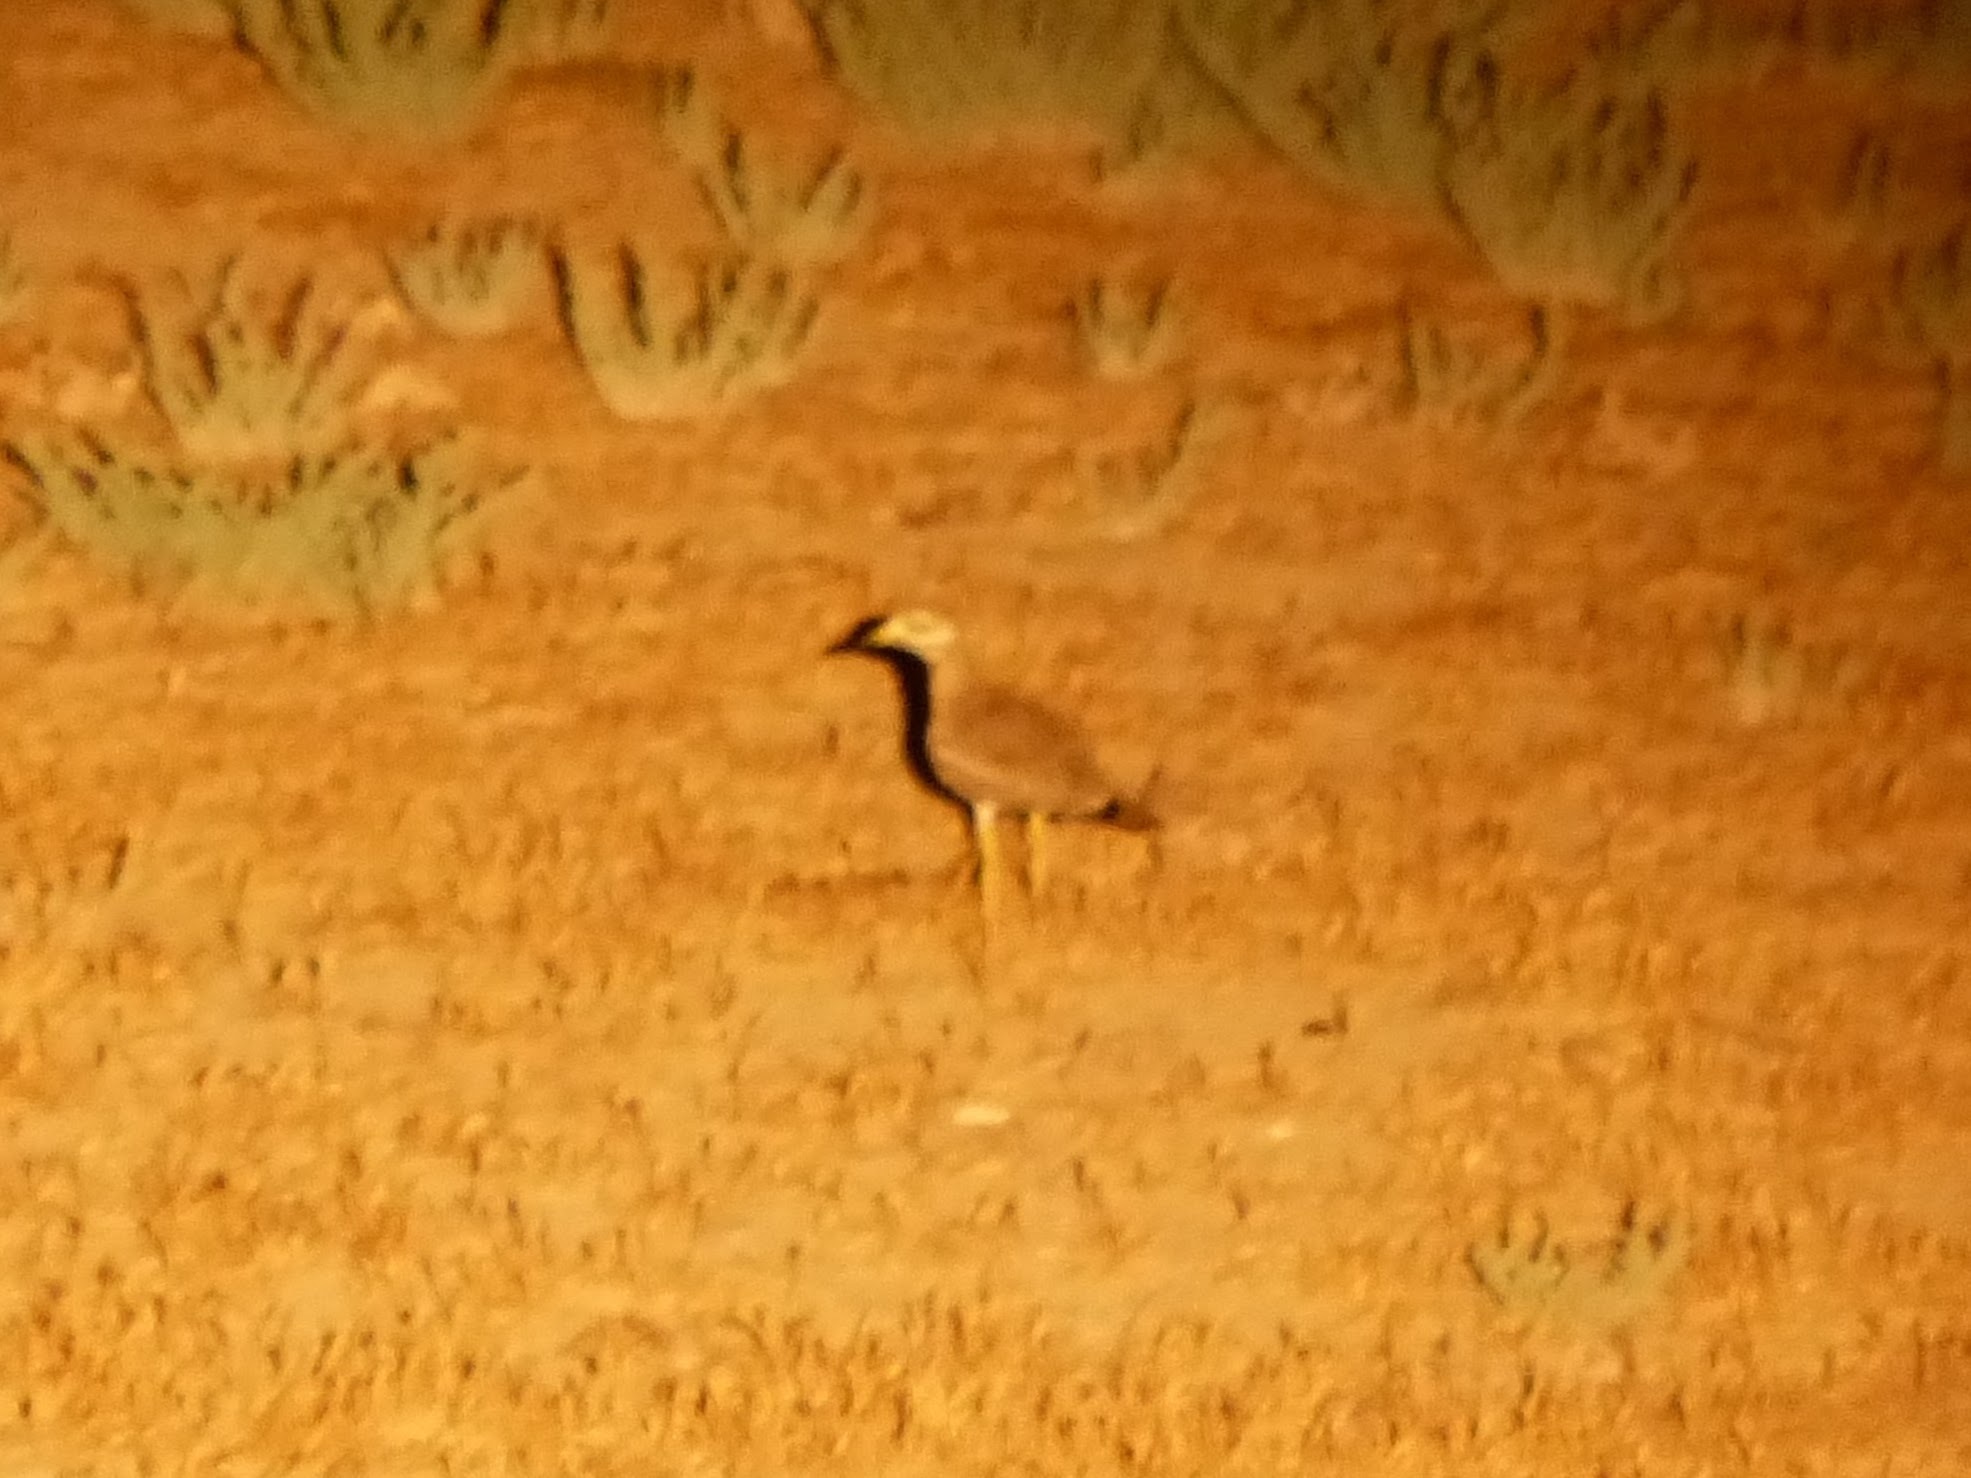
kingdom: Animalia
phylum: Chordata
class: Aves
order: Charadriiformes
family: Burhinidae
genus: Burhinus
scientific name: Burhinus oedicnemus
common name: Eurasian stone-curlew
